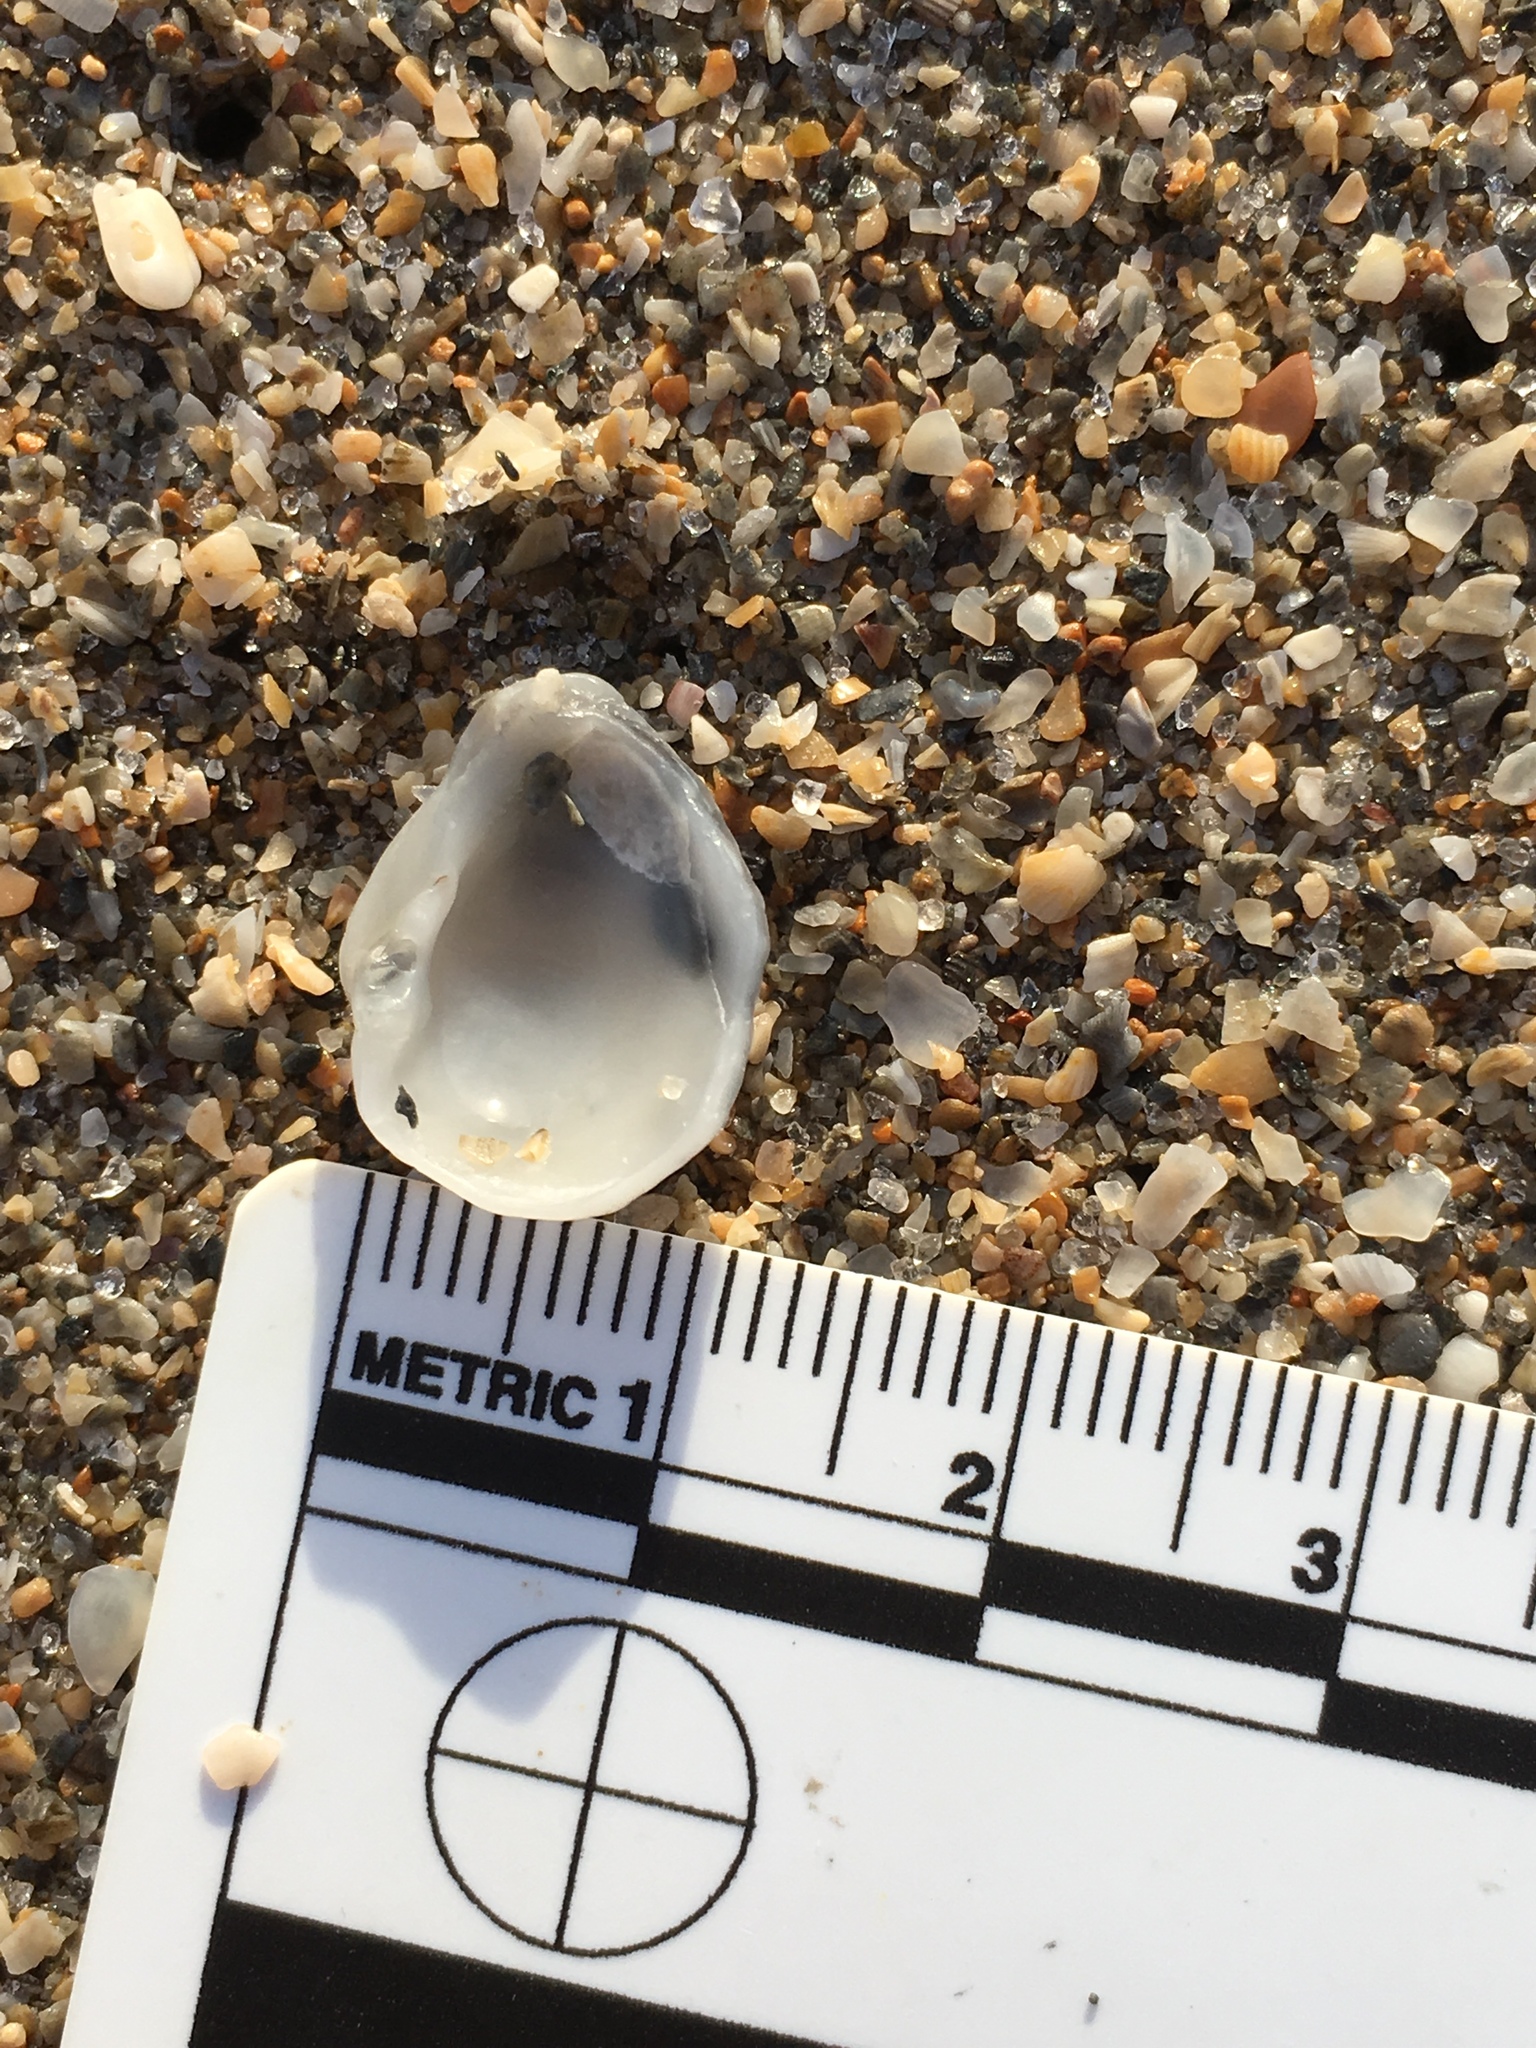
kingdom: Animalia
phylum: Mollusca
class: Bivalvia
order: Venerida
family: Veneridae
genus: Choristodon
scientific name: Choristodon robustus
